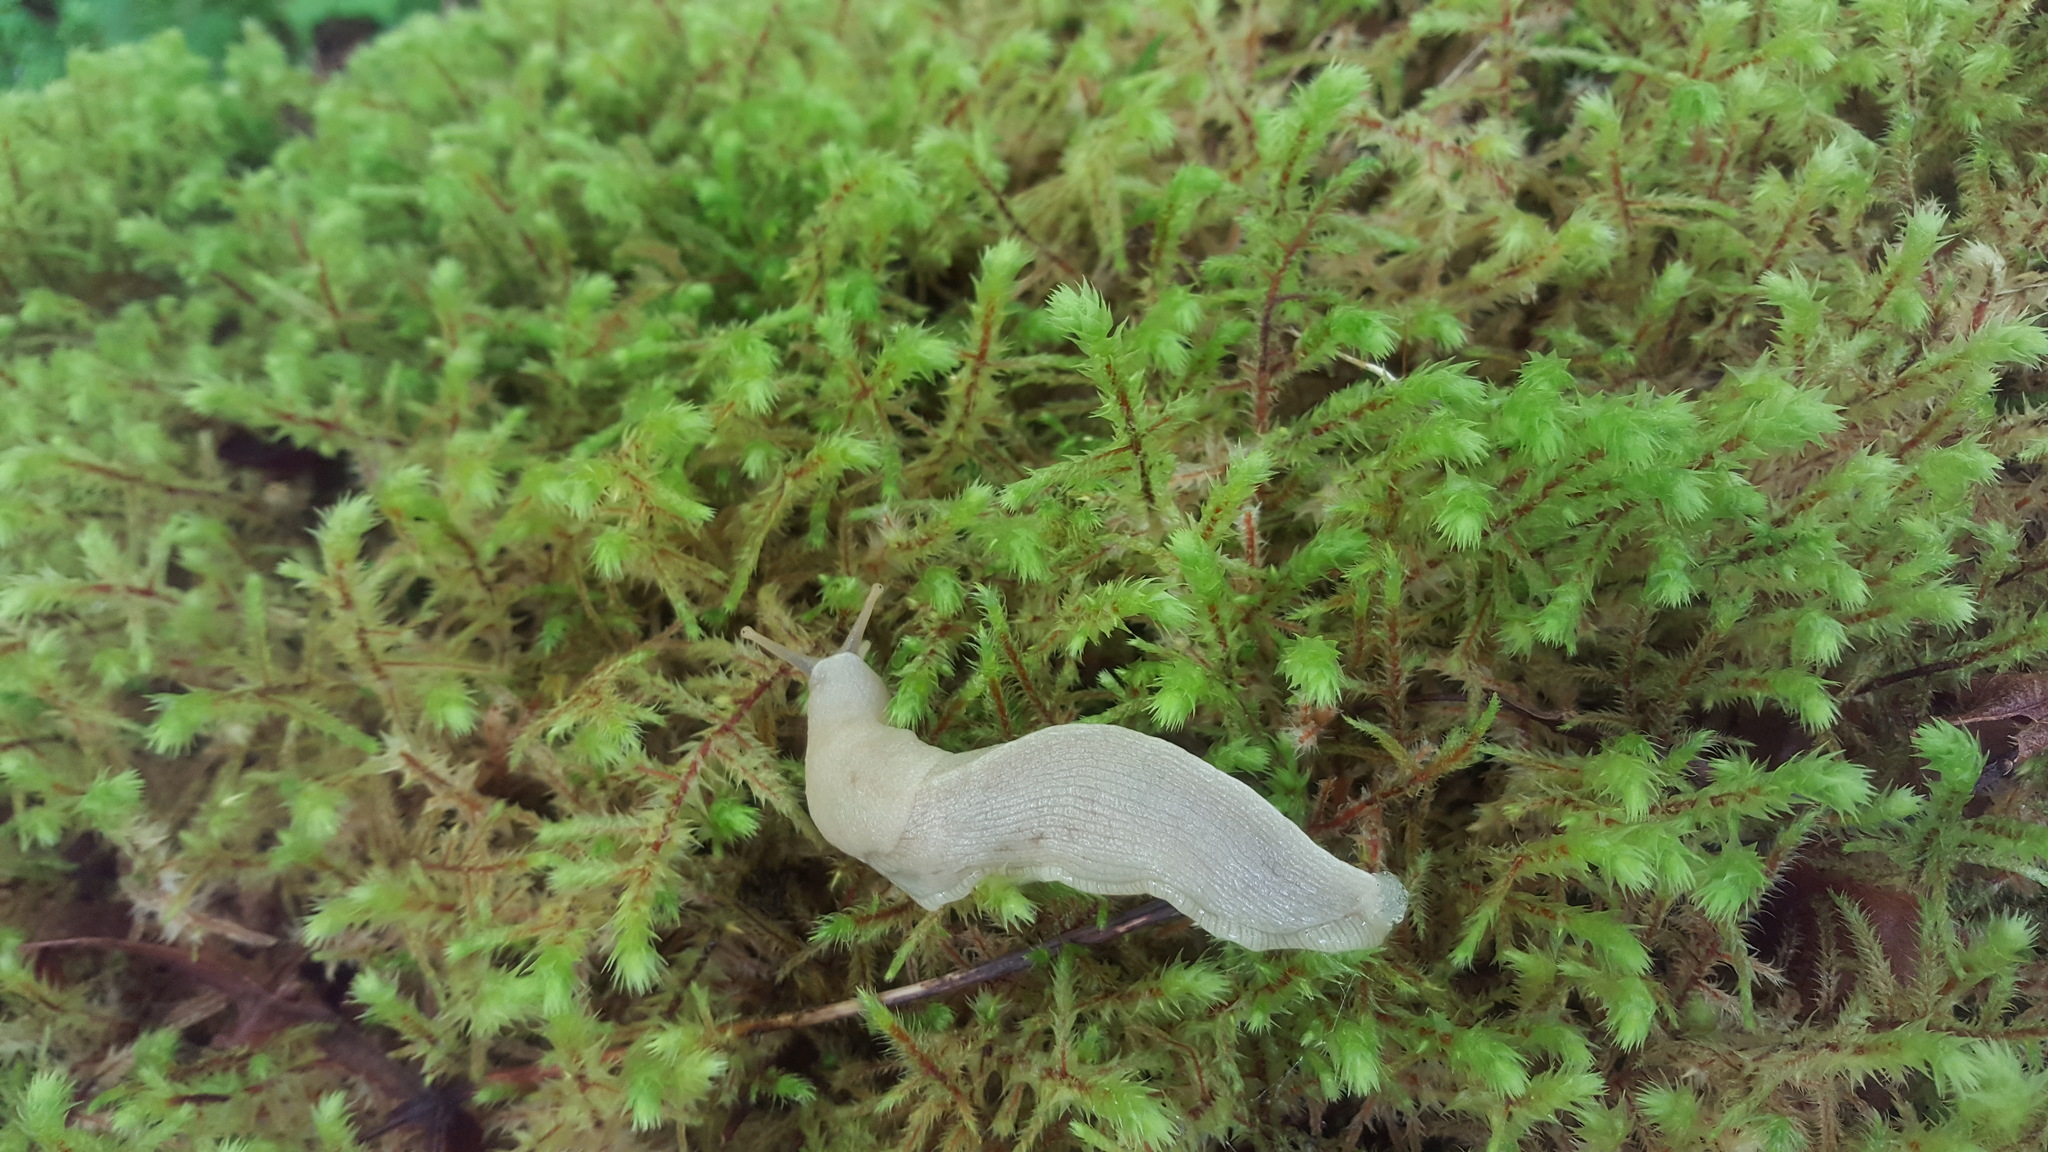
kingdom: Animalia
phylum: Mollusca
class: Gastropoda
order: Stylommatophora
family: Ariolimacidae
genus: Ariolimax
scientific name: Ariolimax columbianus
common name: Pacific banana slug
